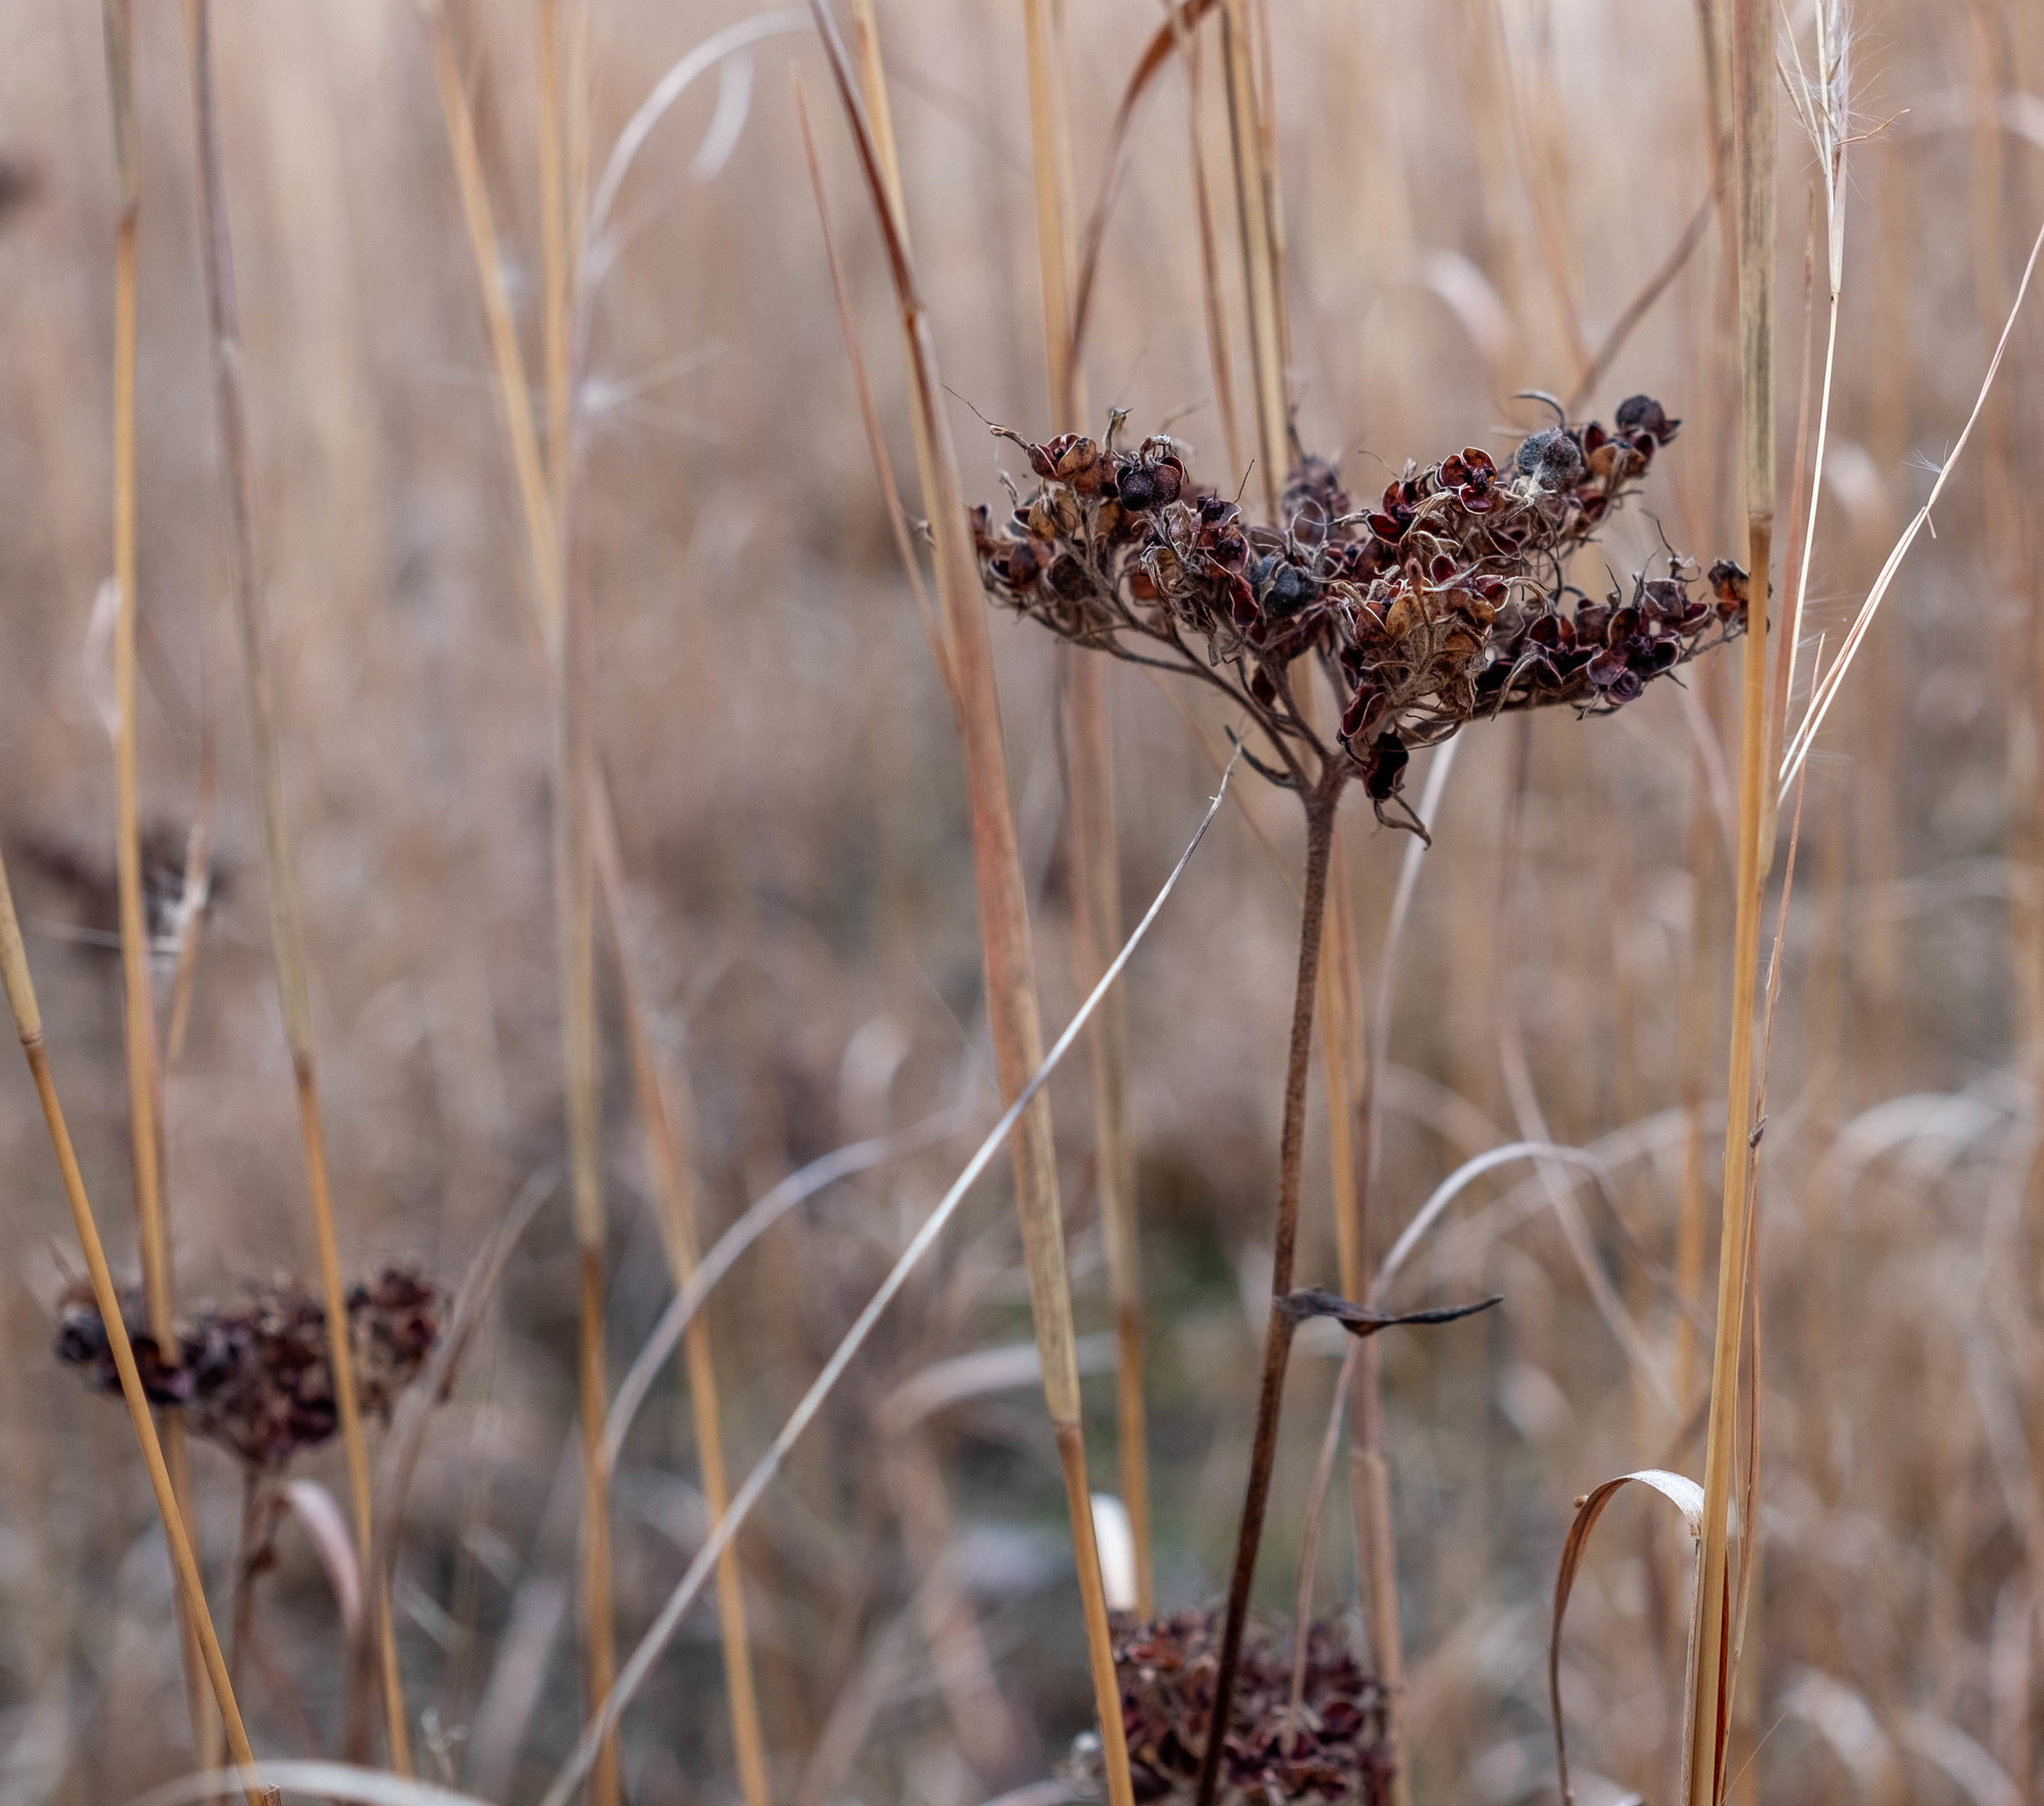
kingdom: Plantae
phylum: Tracheophyta
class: Liliopsida
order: Commelinales
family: Haemodoraceae
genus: Lachnanthes
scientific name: Lachnanthes caroliana
